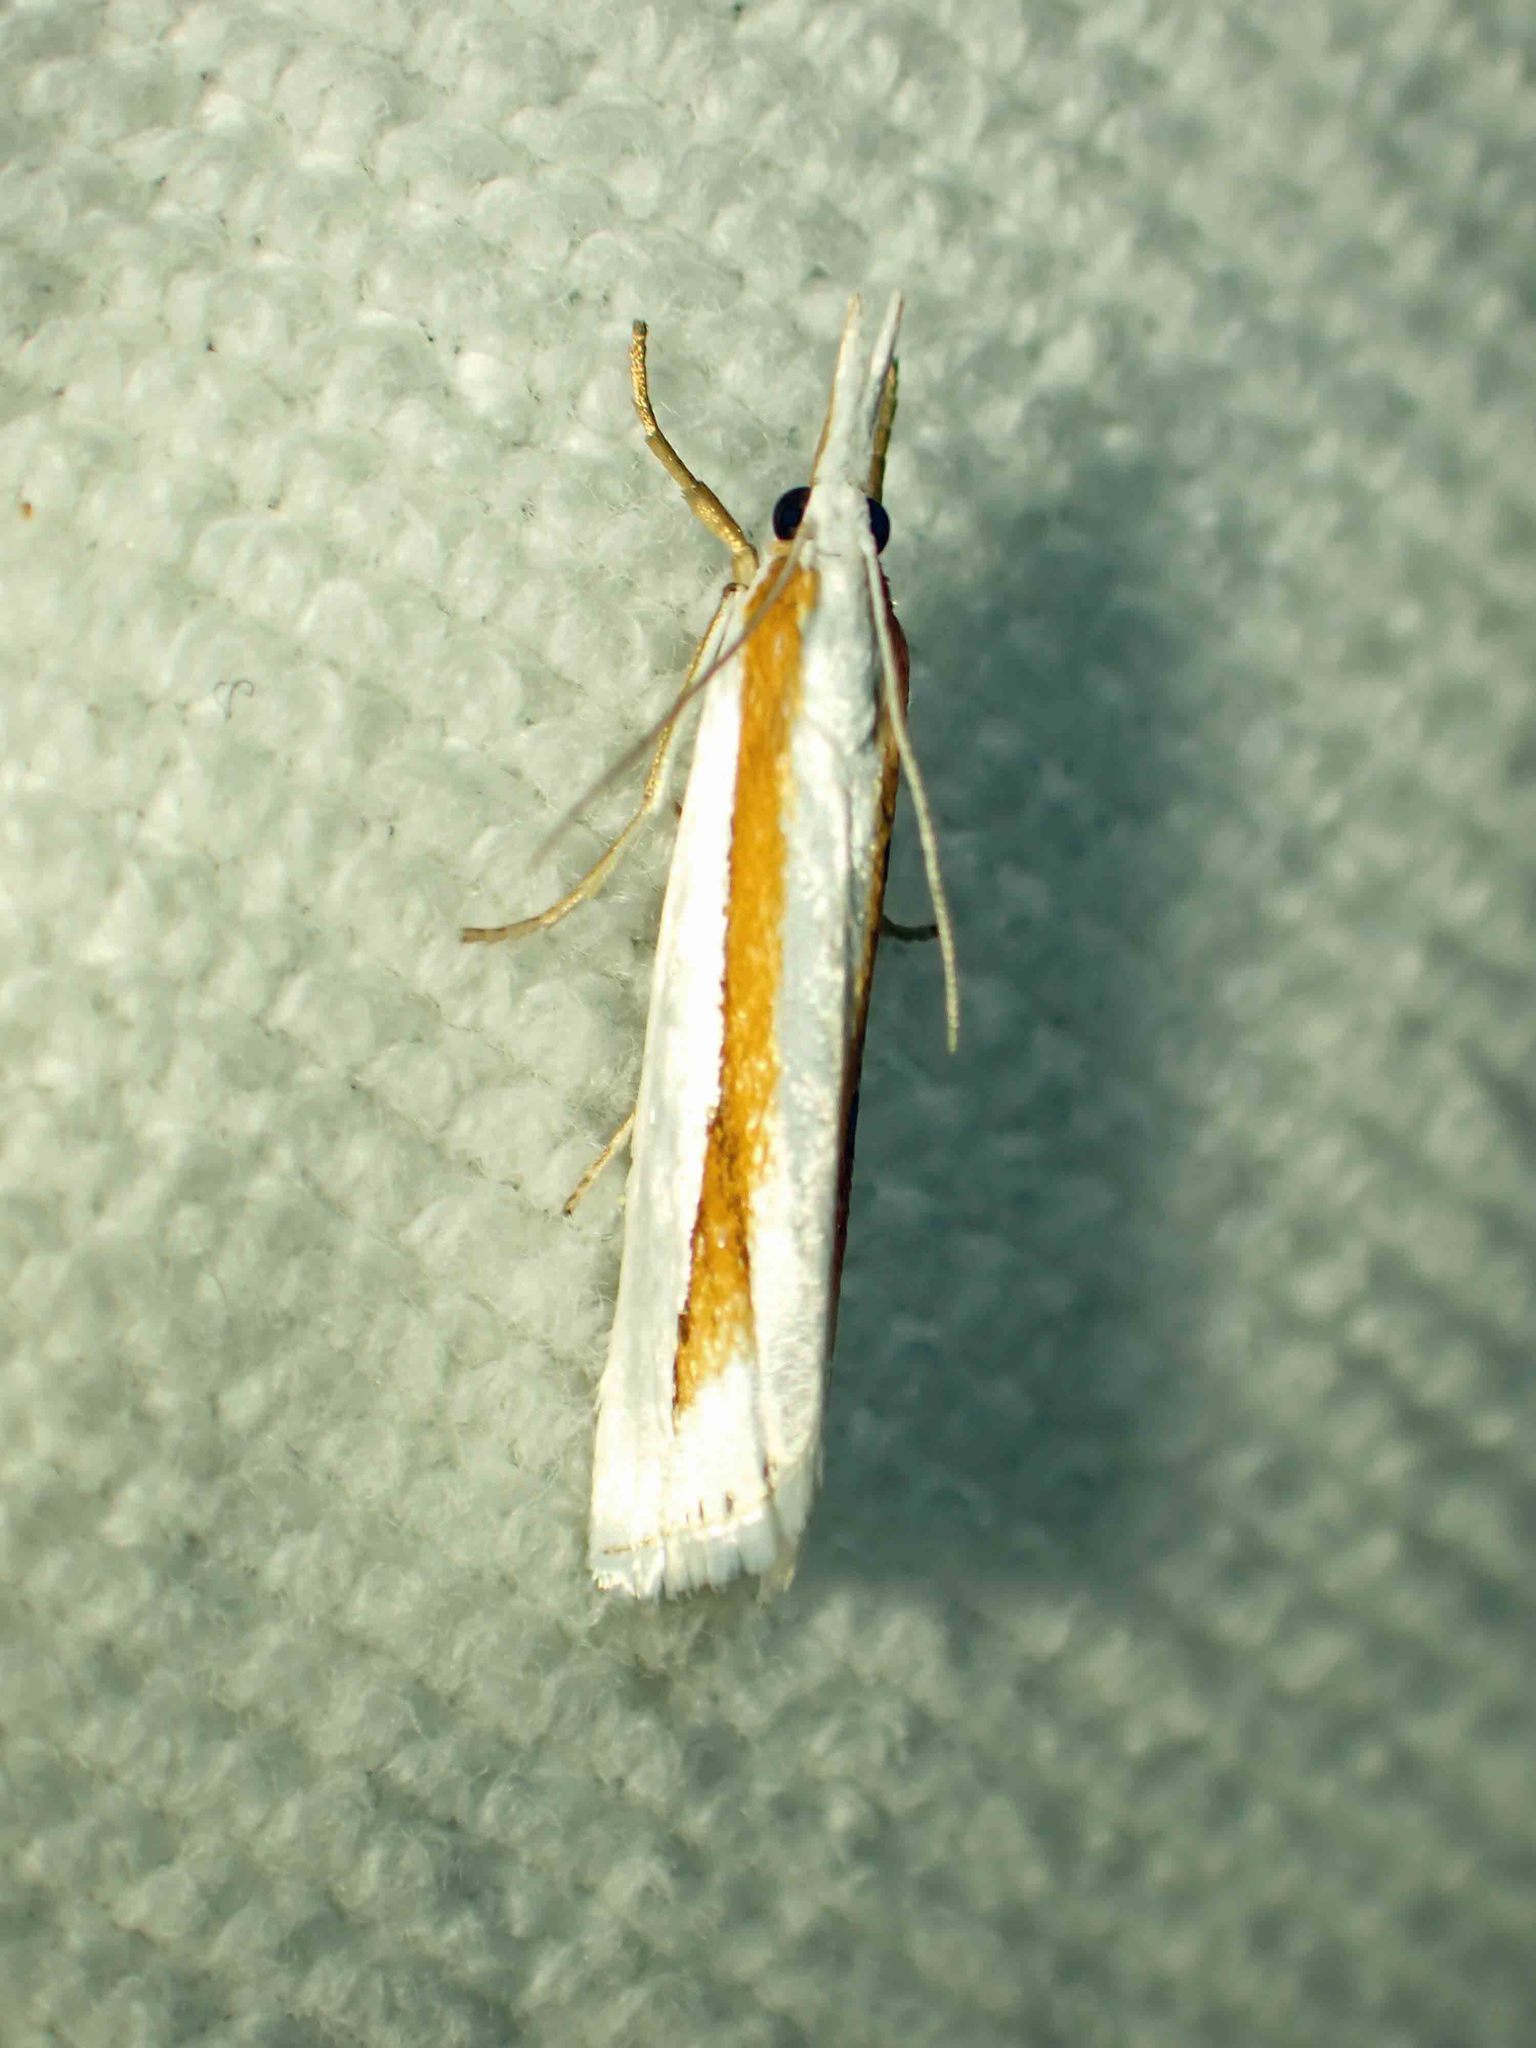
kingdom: Animalia
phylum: Arthropoda
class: Insecta
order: Lepidoptera
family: Crambidae
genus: Crambus
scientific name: Crambus girardellus
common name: Girard's grass-veneer
